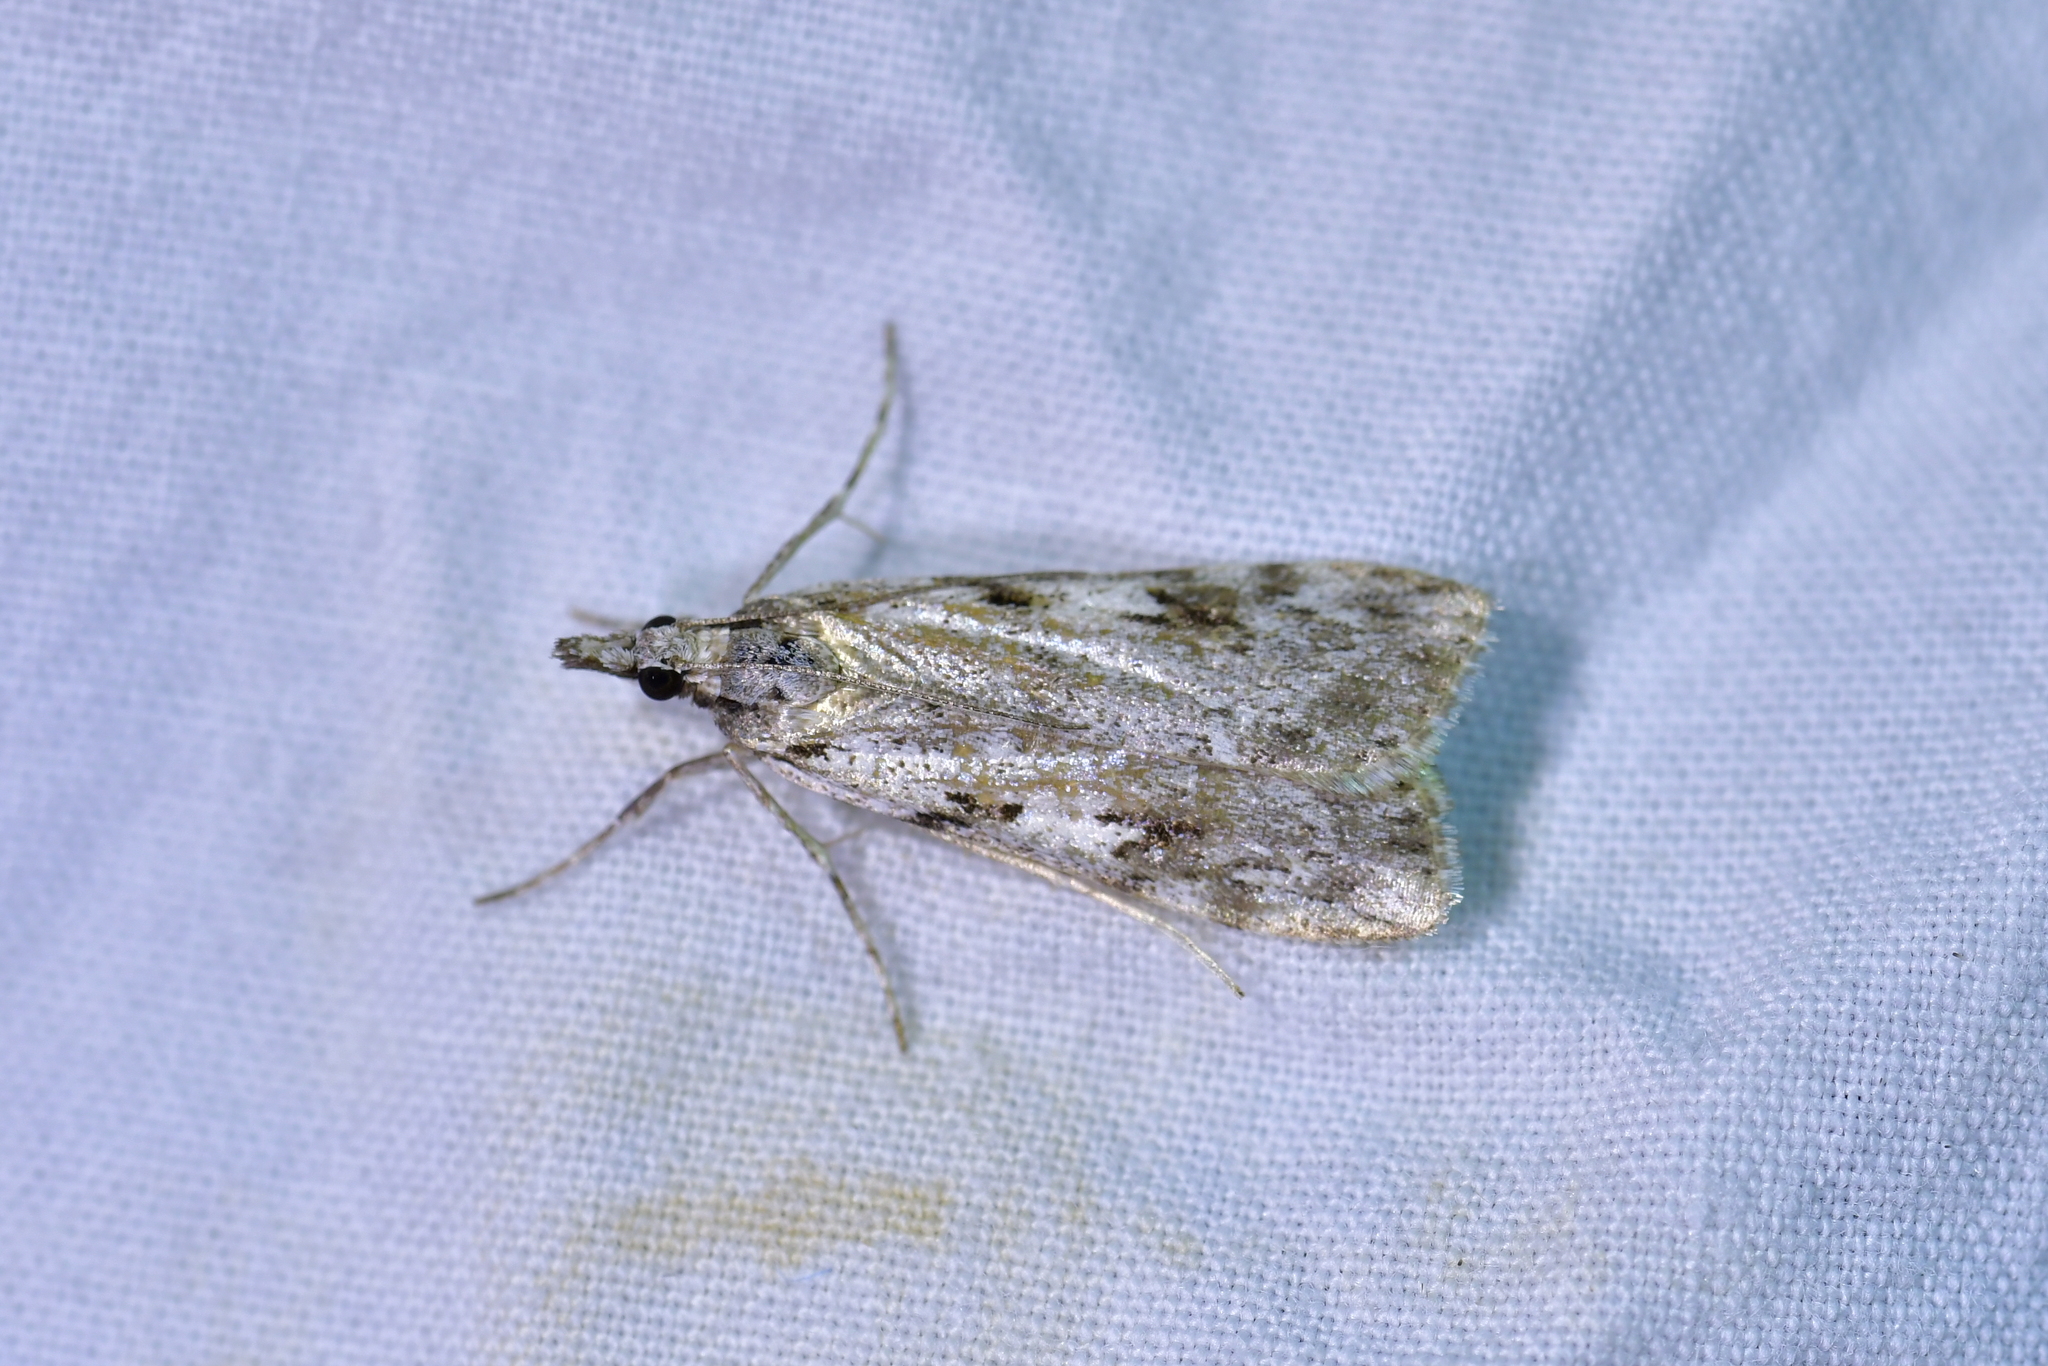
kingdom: Animalia
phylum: Arthropoda
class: Insecta
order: Lepidoptera
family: Crambidae
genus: Scoparia
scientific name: Scoparia halopis
